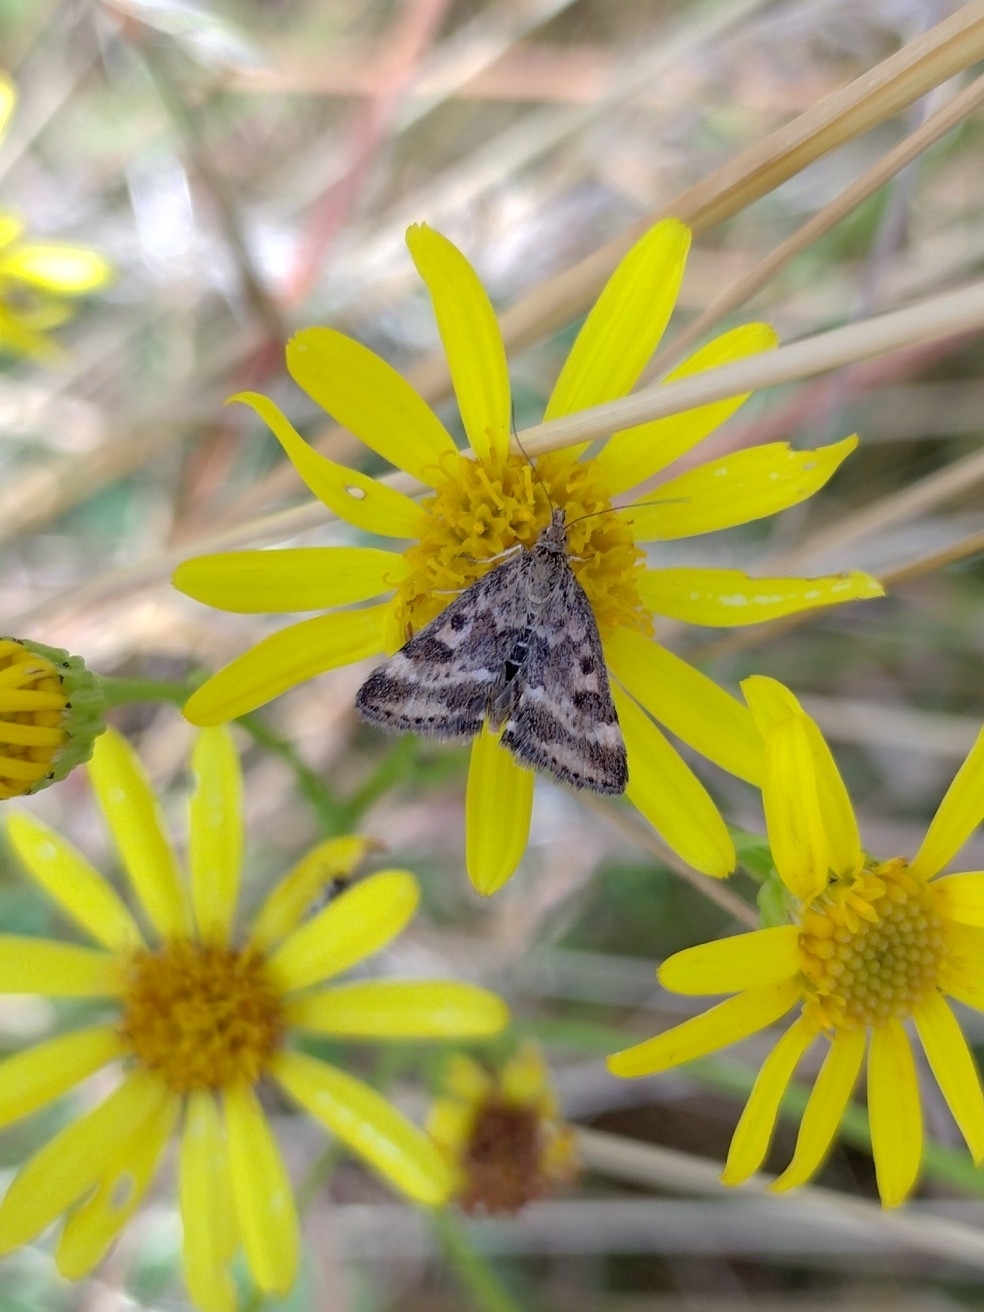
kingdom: Animalia
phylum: Arthropoda
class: Insecta
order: Lepidoptera
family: Crambidae
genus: Pyrausta
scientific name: Pyrausta despicata
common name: Straw-barred pearl
